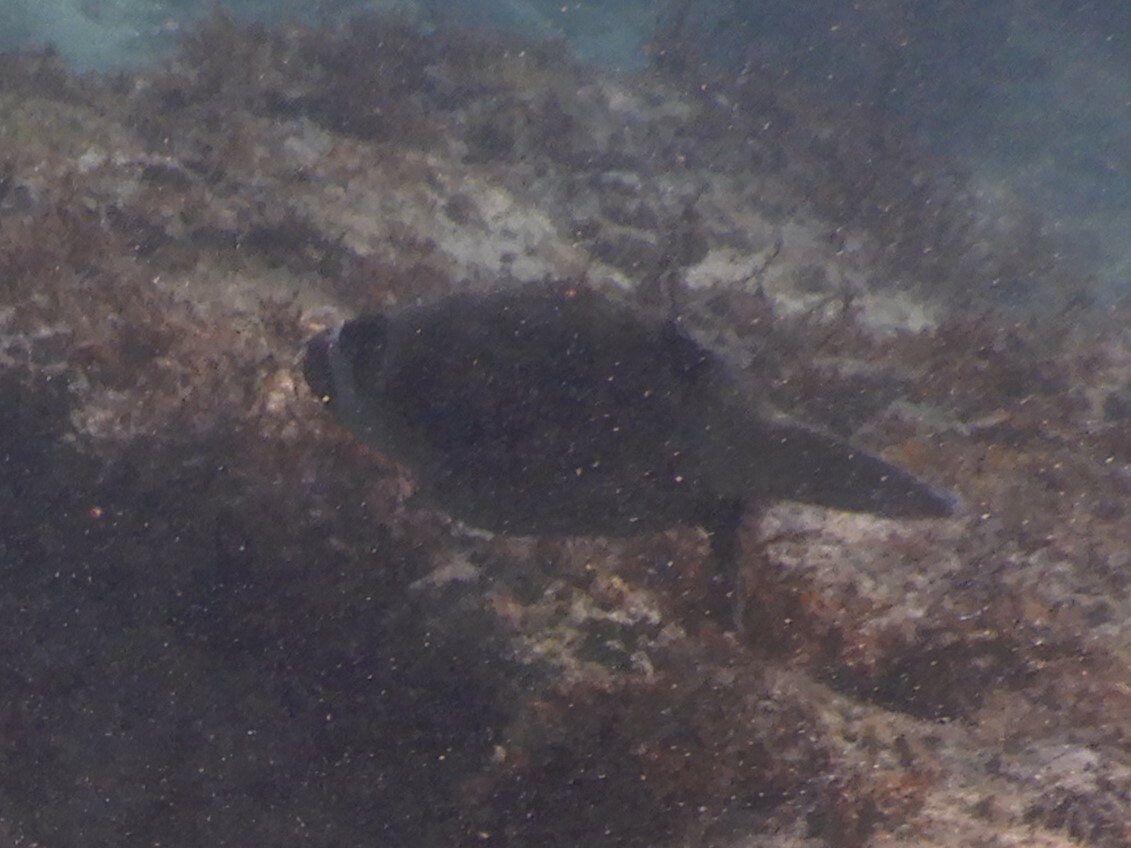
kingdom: Animalia
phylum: Chordata
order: Tetraodontiformes
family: Tetraodontidae
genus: Arothron
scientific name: Arothron diadematus
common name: Masked puffer
